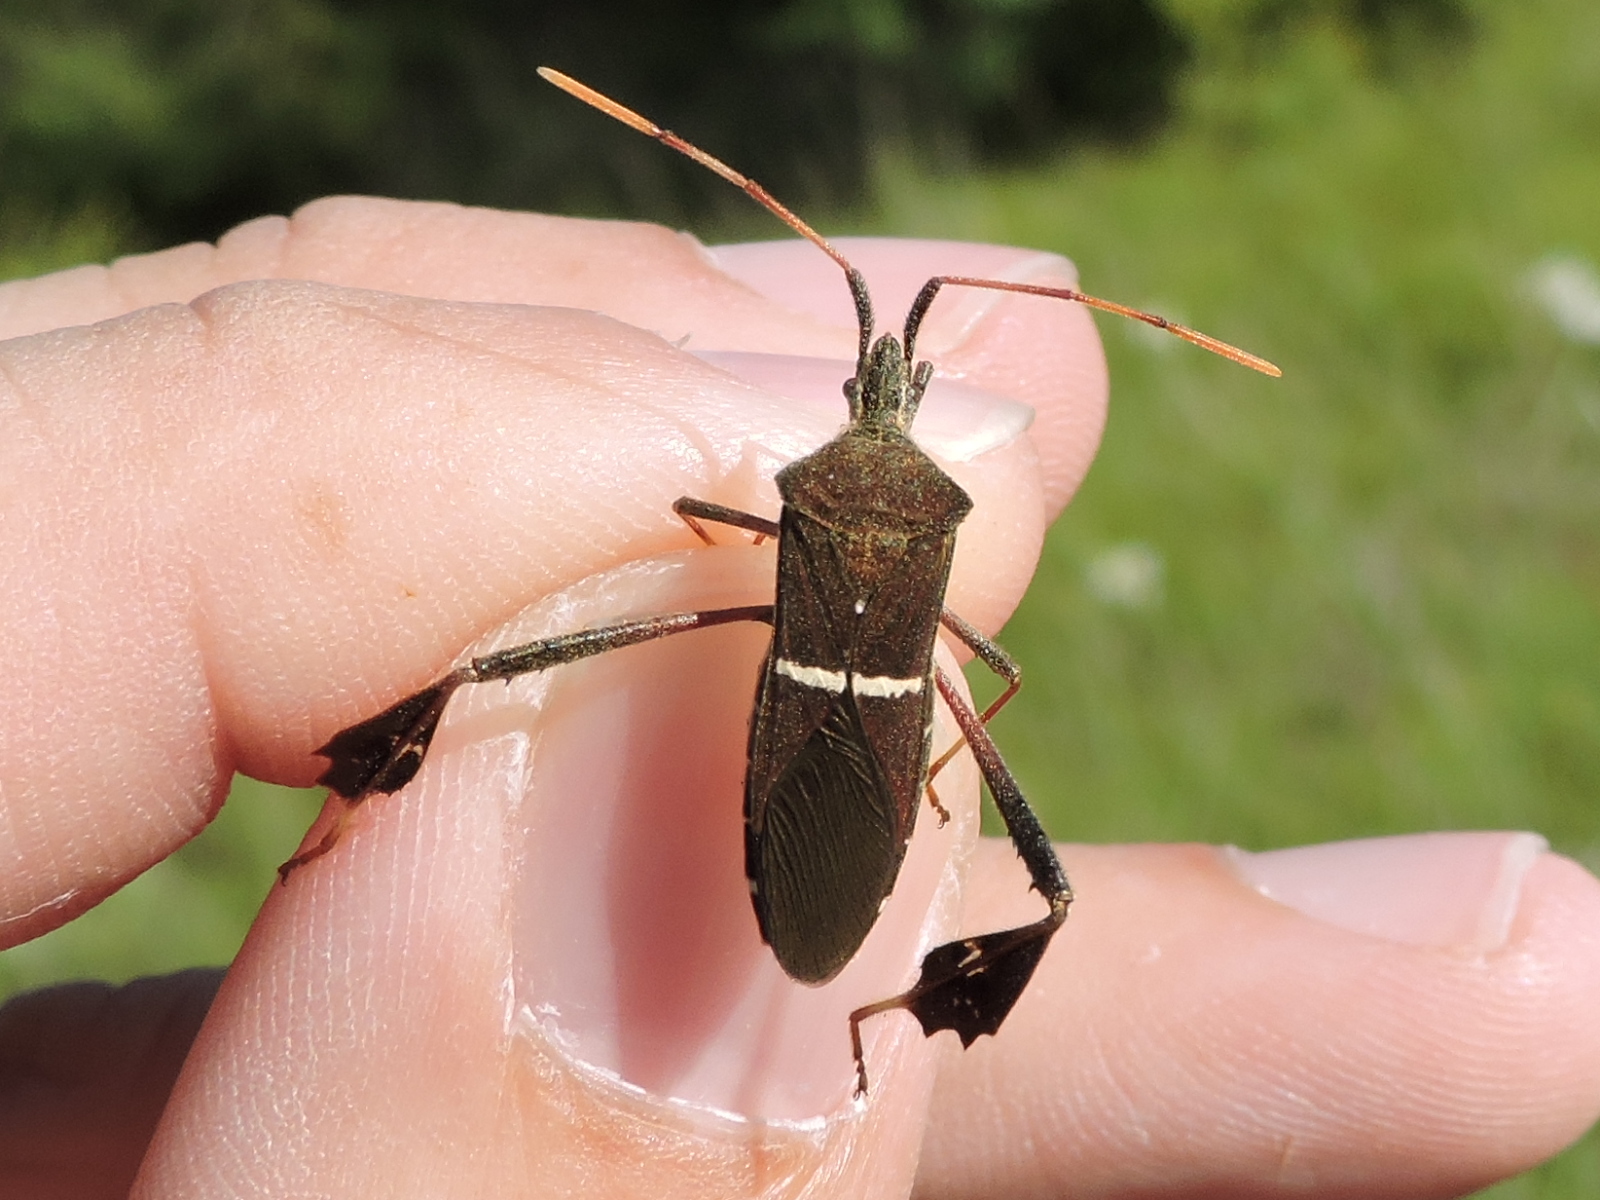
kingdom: Animalia
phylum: Arthropoda
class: Insecta
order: Hemiptera
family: Coreidae
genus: Leptoglossus
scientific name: Leptoglossus phyllopus
